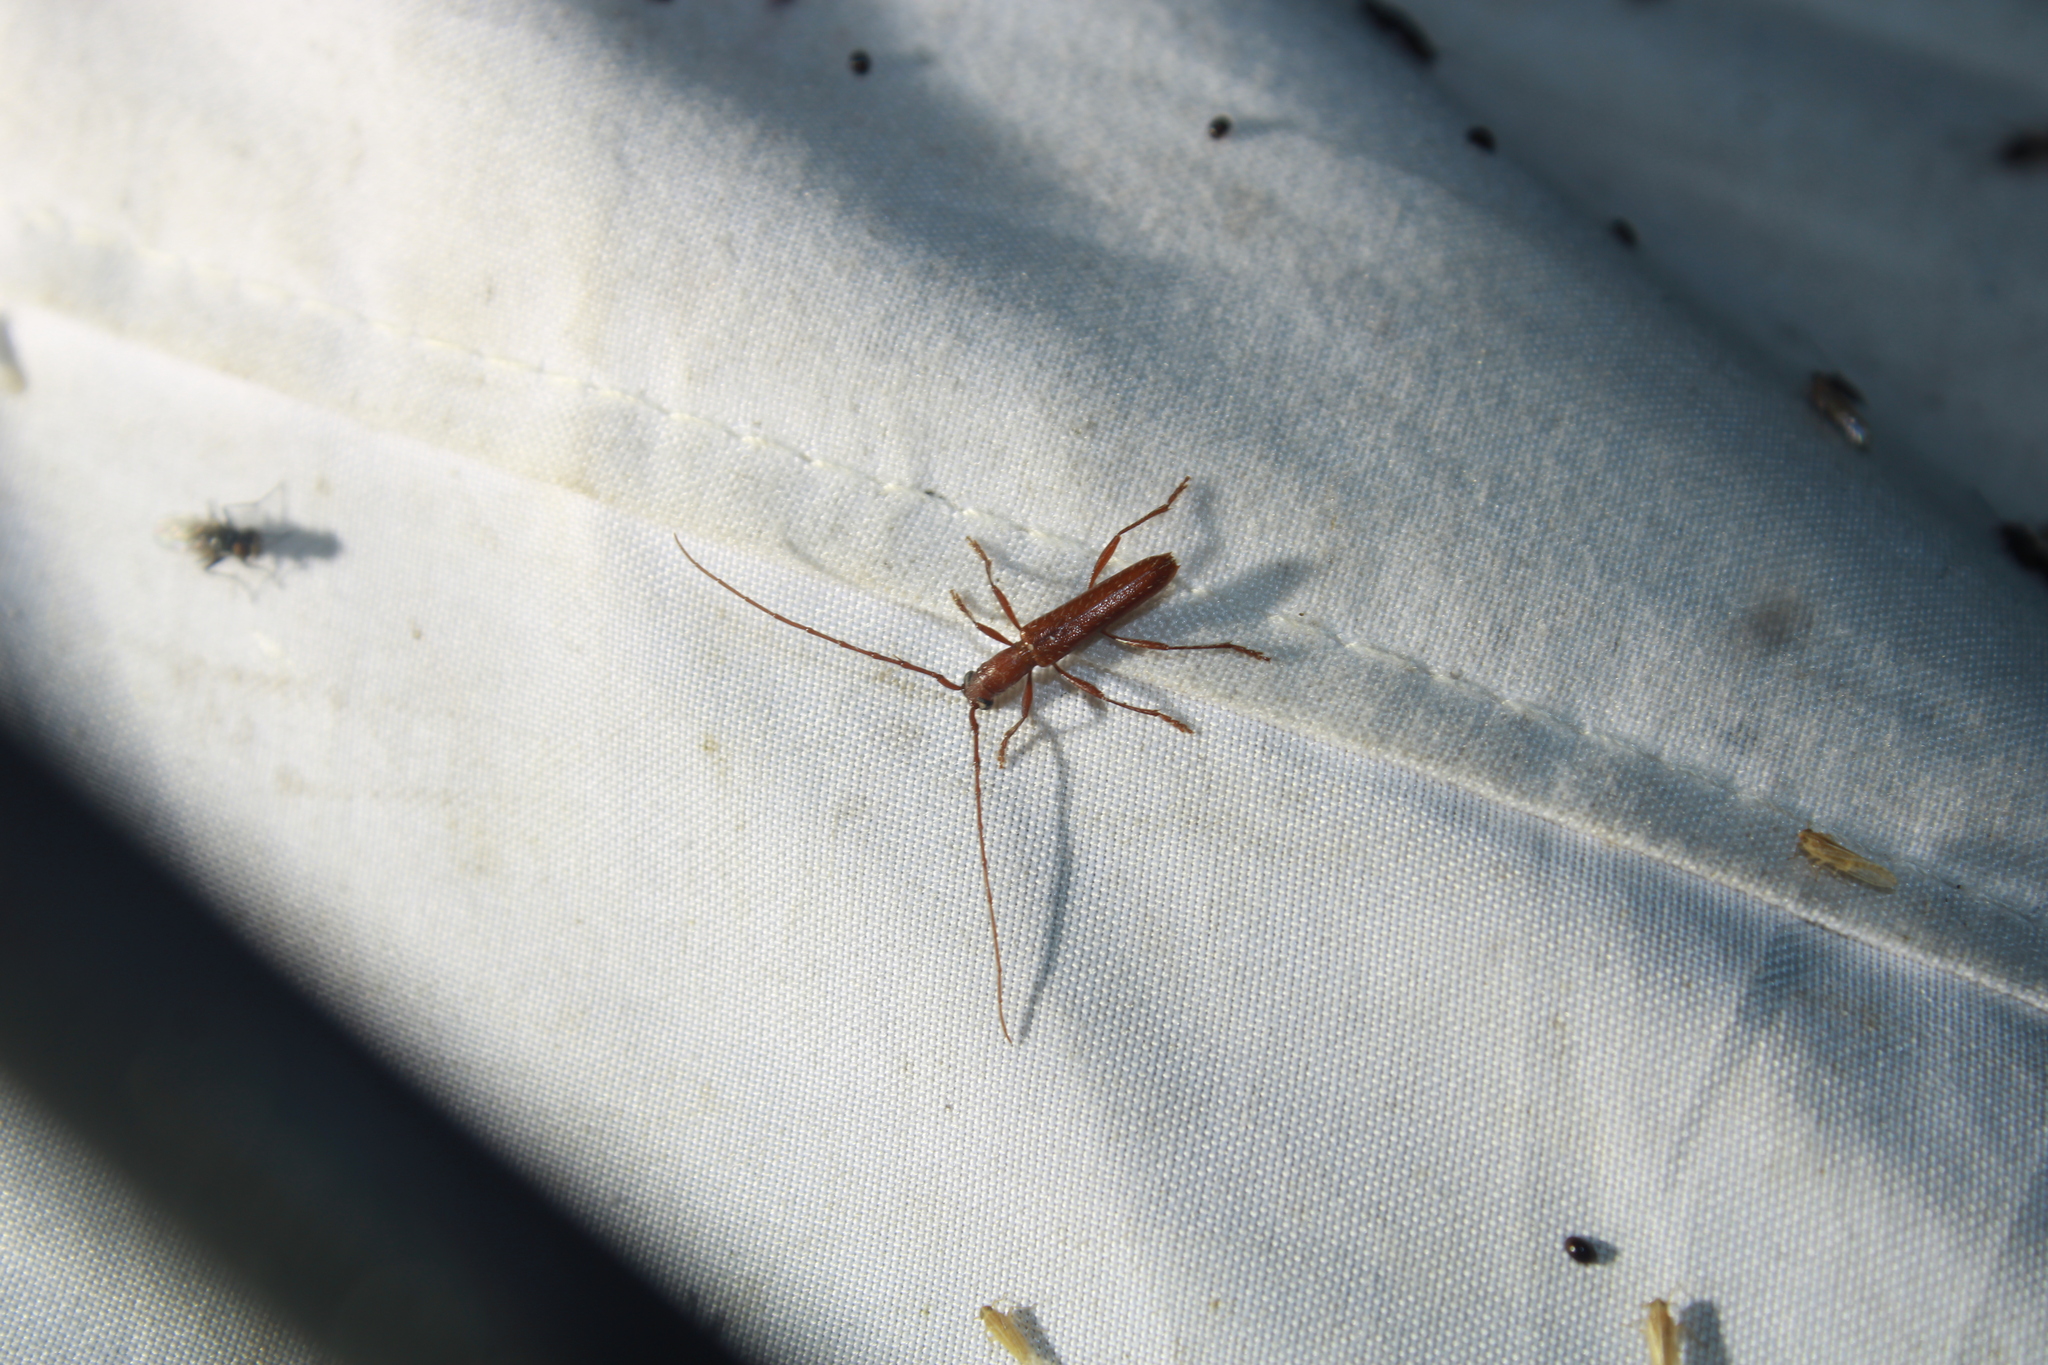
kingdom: Animalia
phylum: Arthropoda
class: Insecta
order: Coleoptera
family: Cerambycidae
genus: Psyrassa
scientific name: Psyrassa pertenuis
